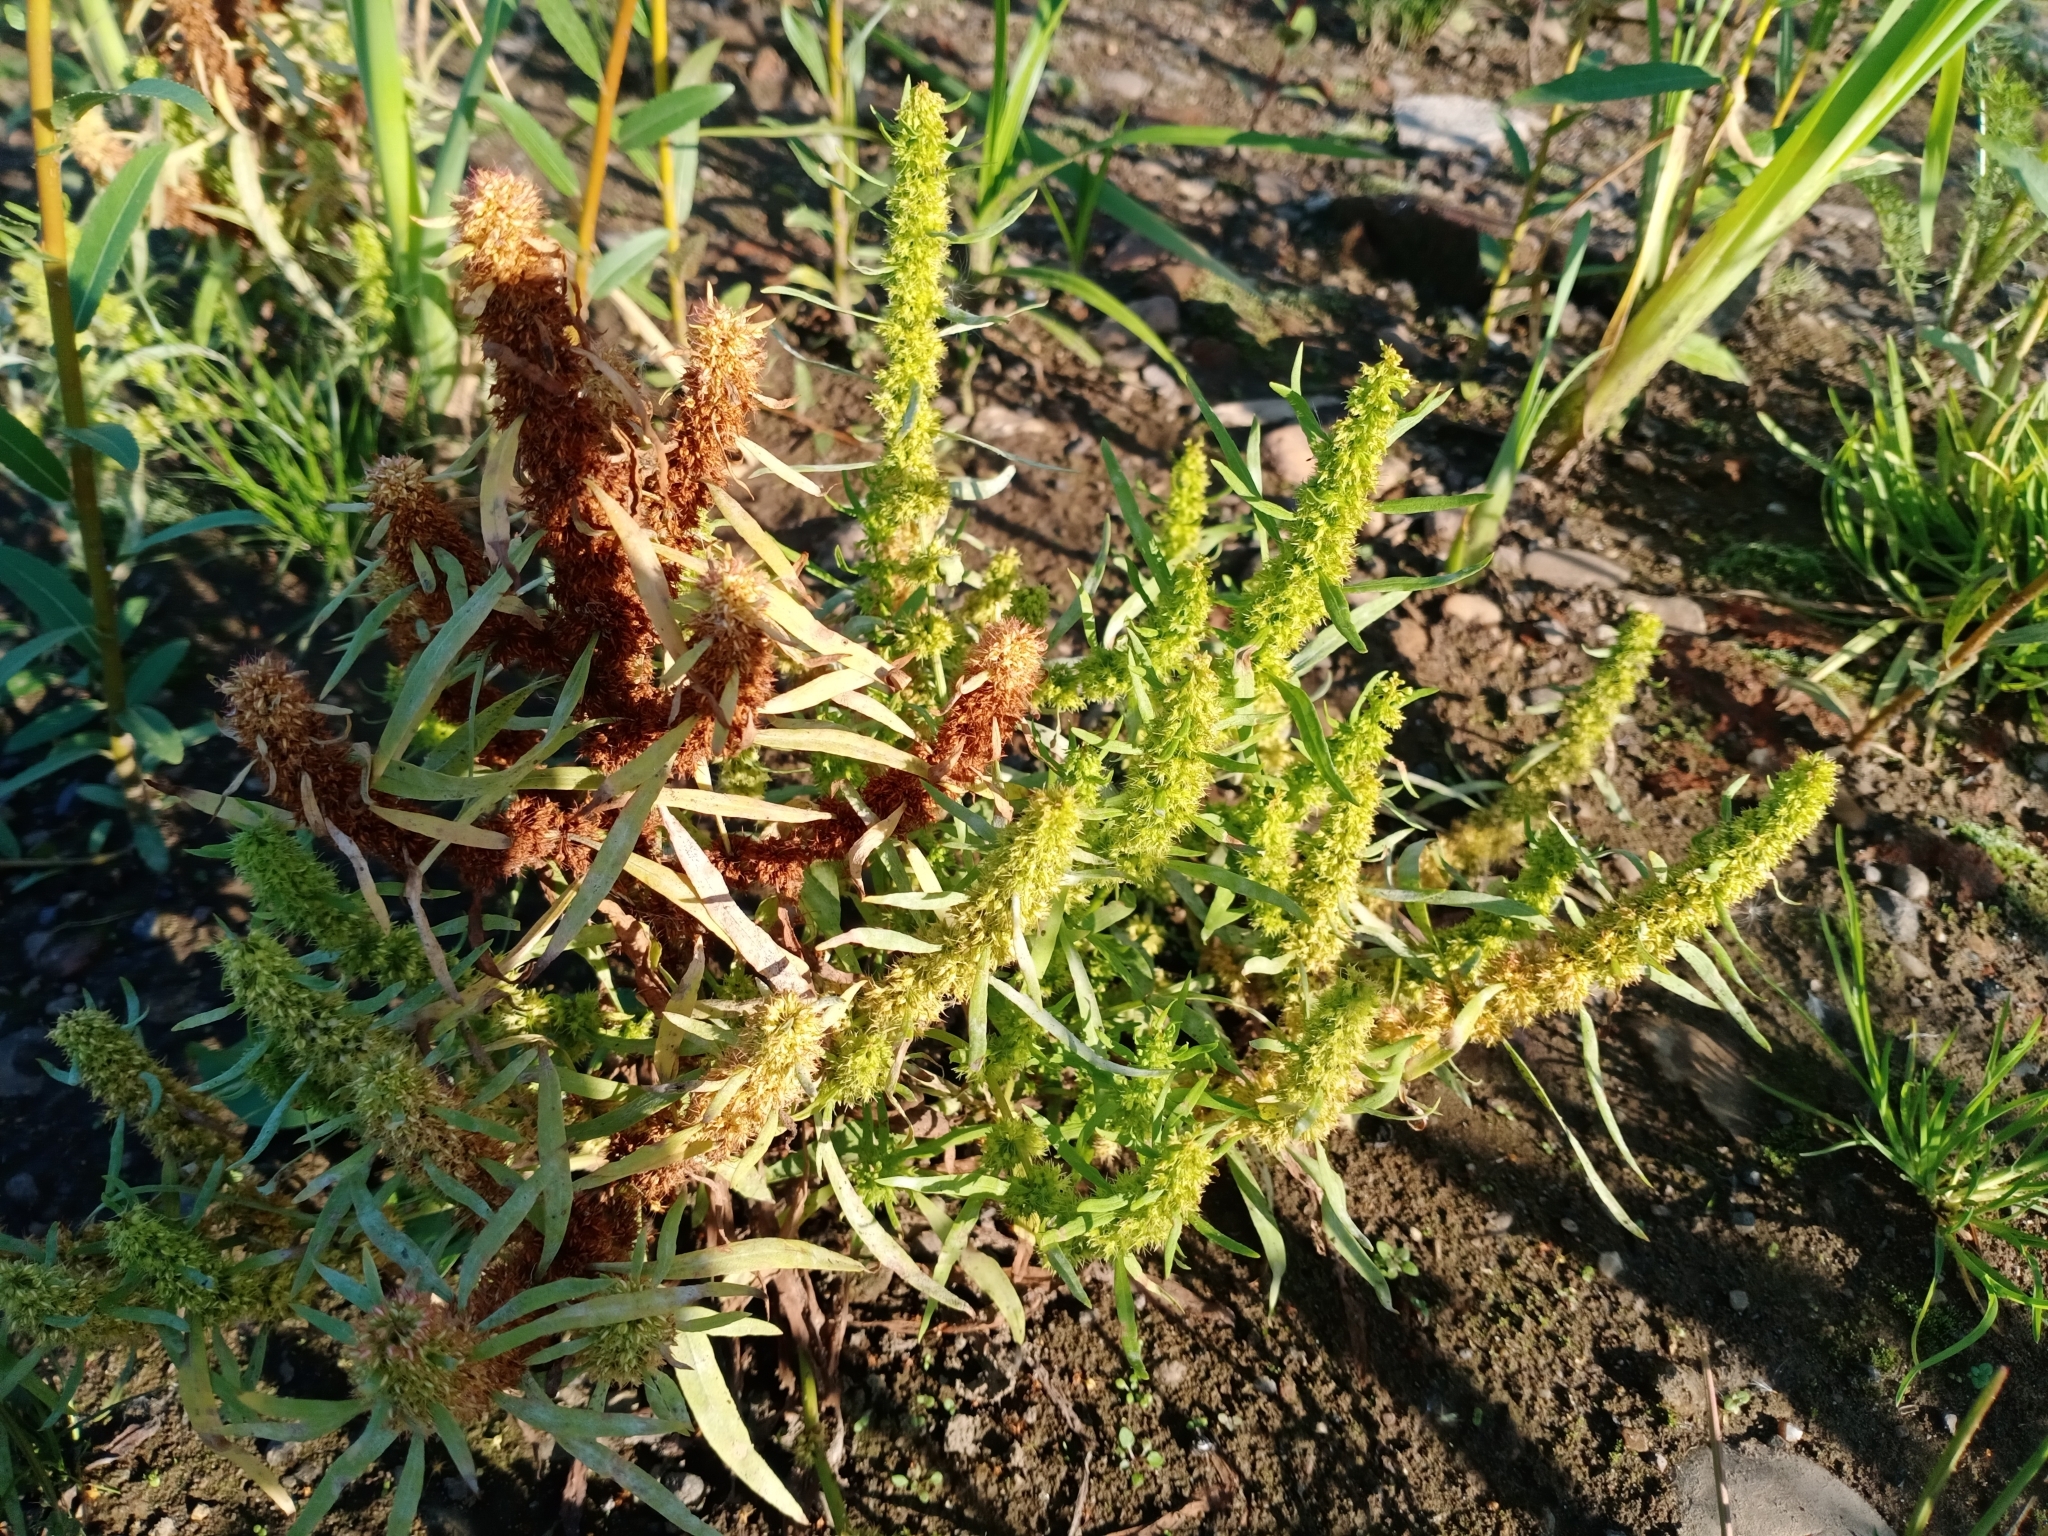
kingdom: Plantae
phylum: Tracheophyta
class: Magnoliopsida
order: Caryophyllales
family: Polygonaceae
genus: Rumex
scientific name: Rumex maritimus
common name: Golden dock
